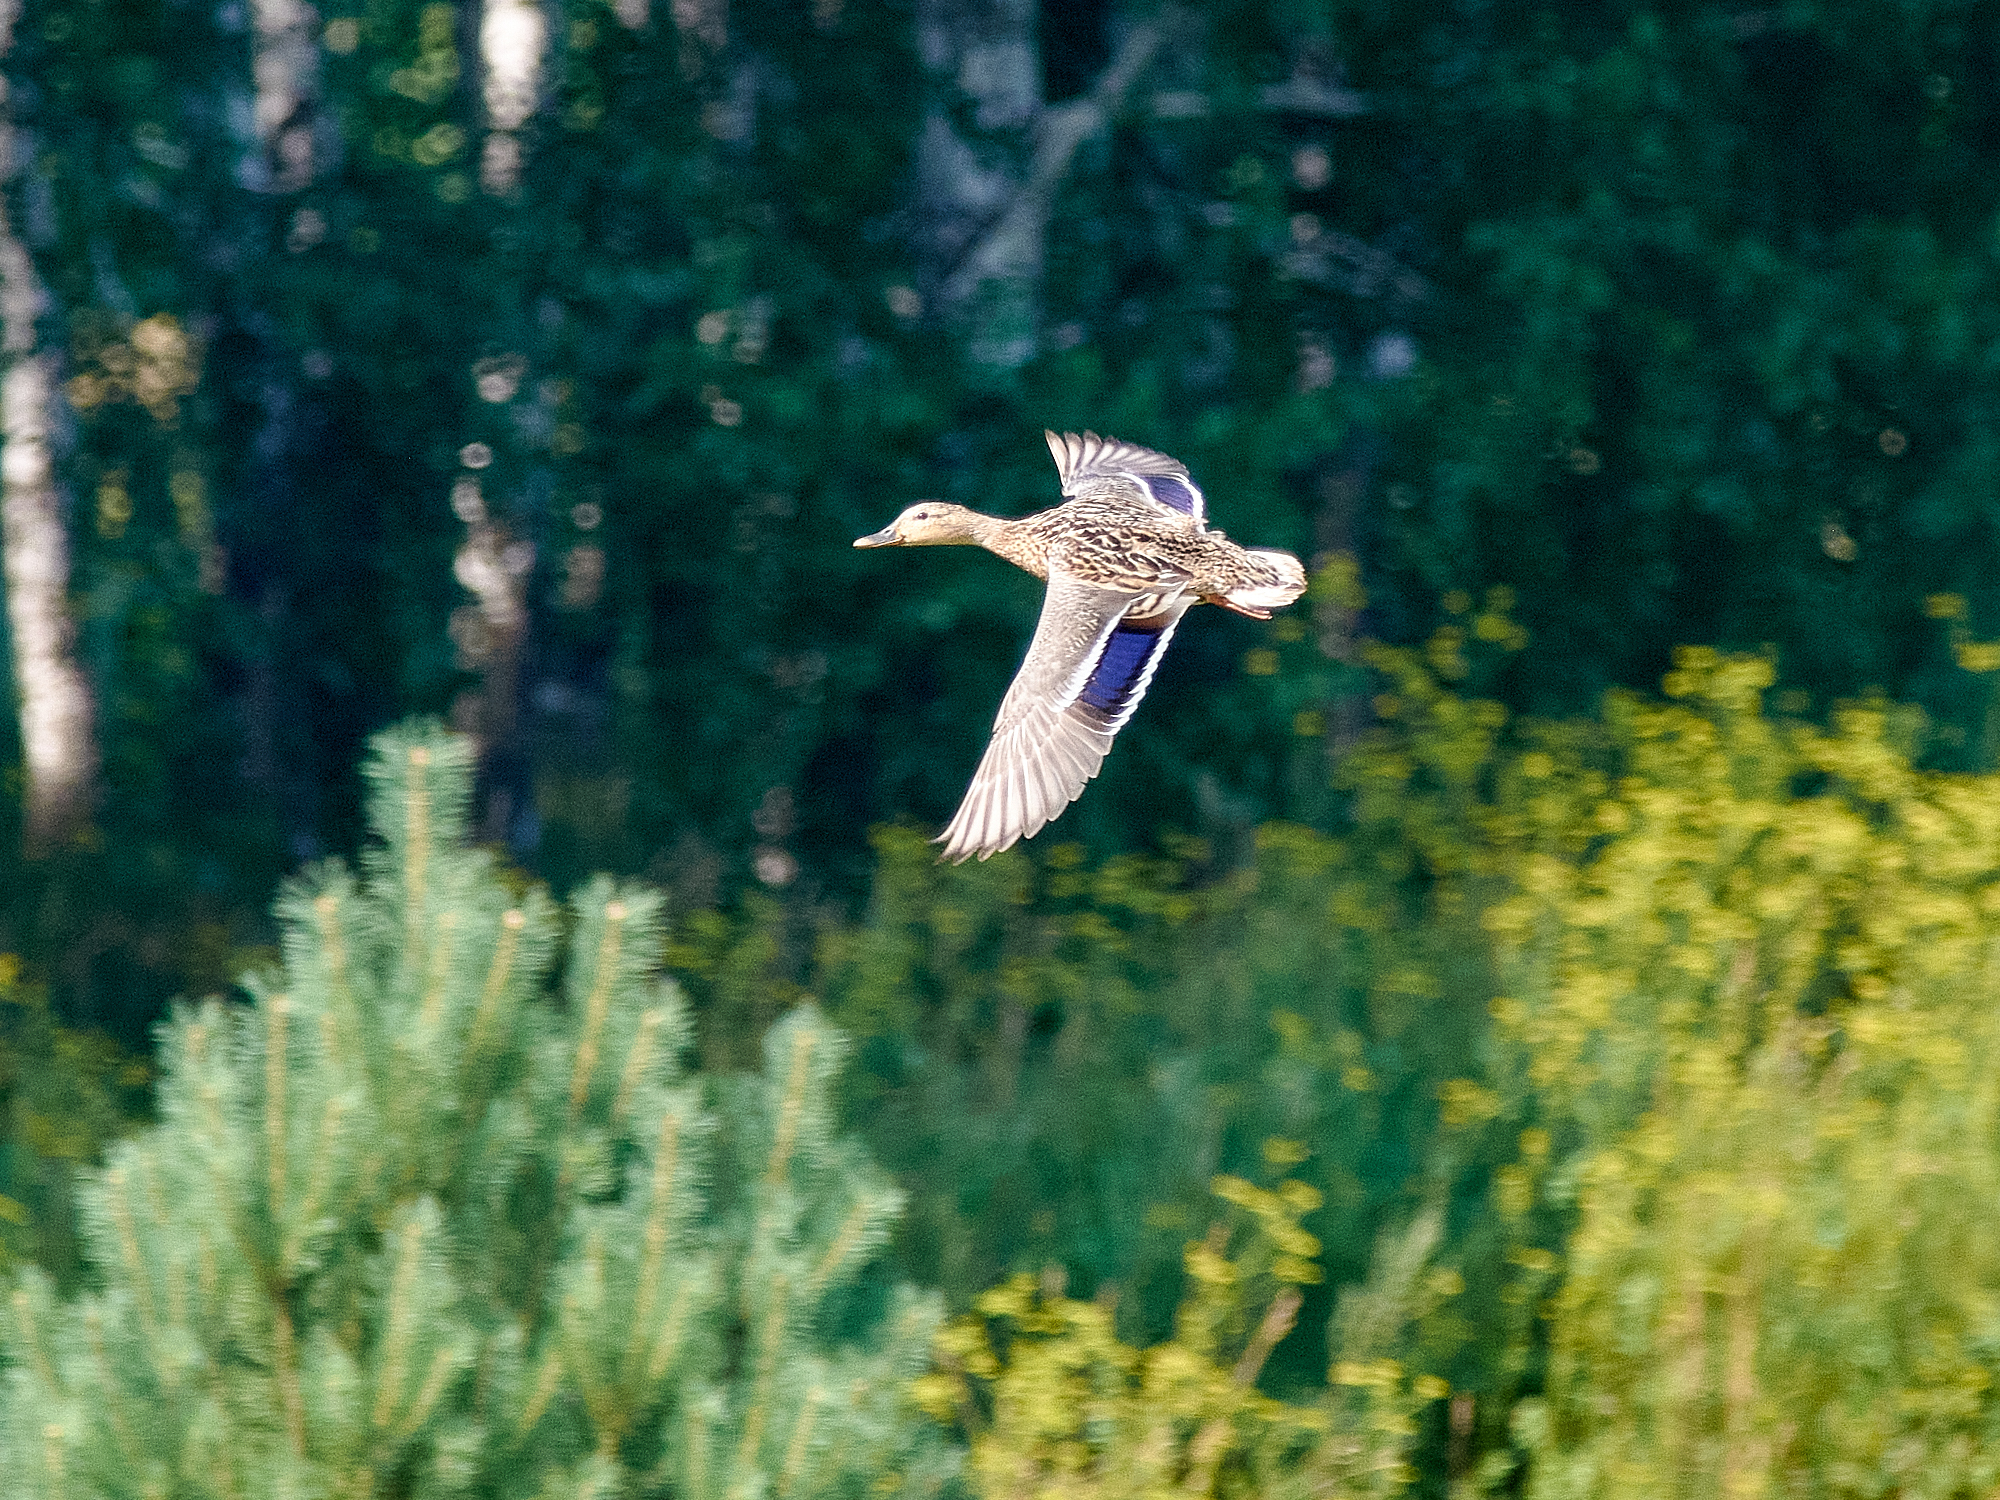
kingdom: Animalia
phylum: Chordata
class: Aves
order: Anseriformes
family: Anatidae
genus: Anas
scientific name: Anas platyrhynchos
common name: Mallard
